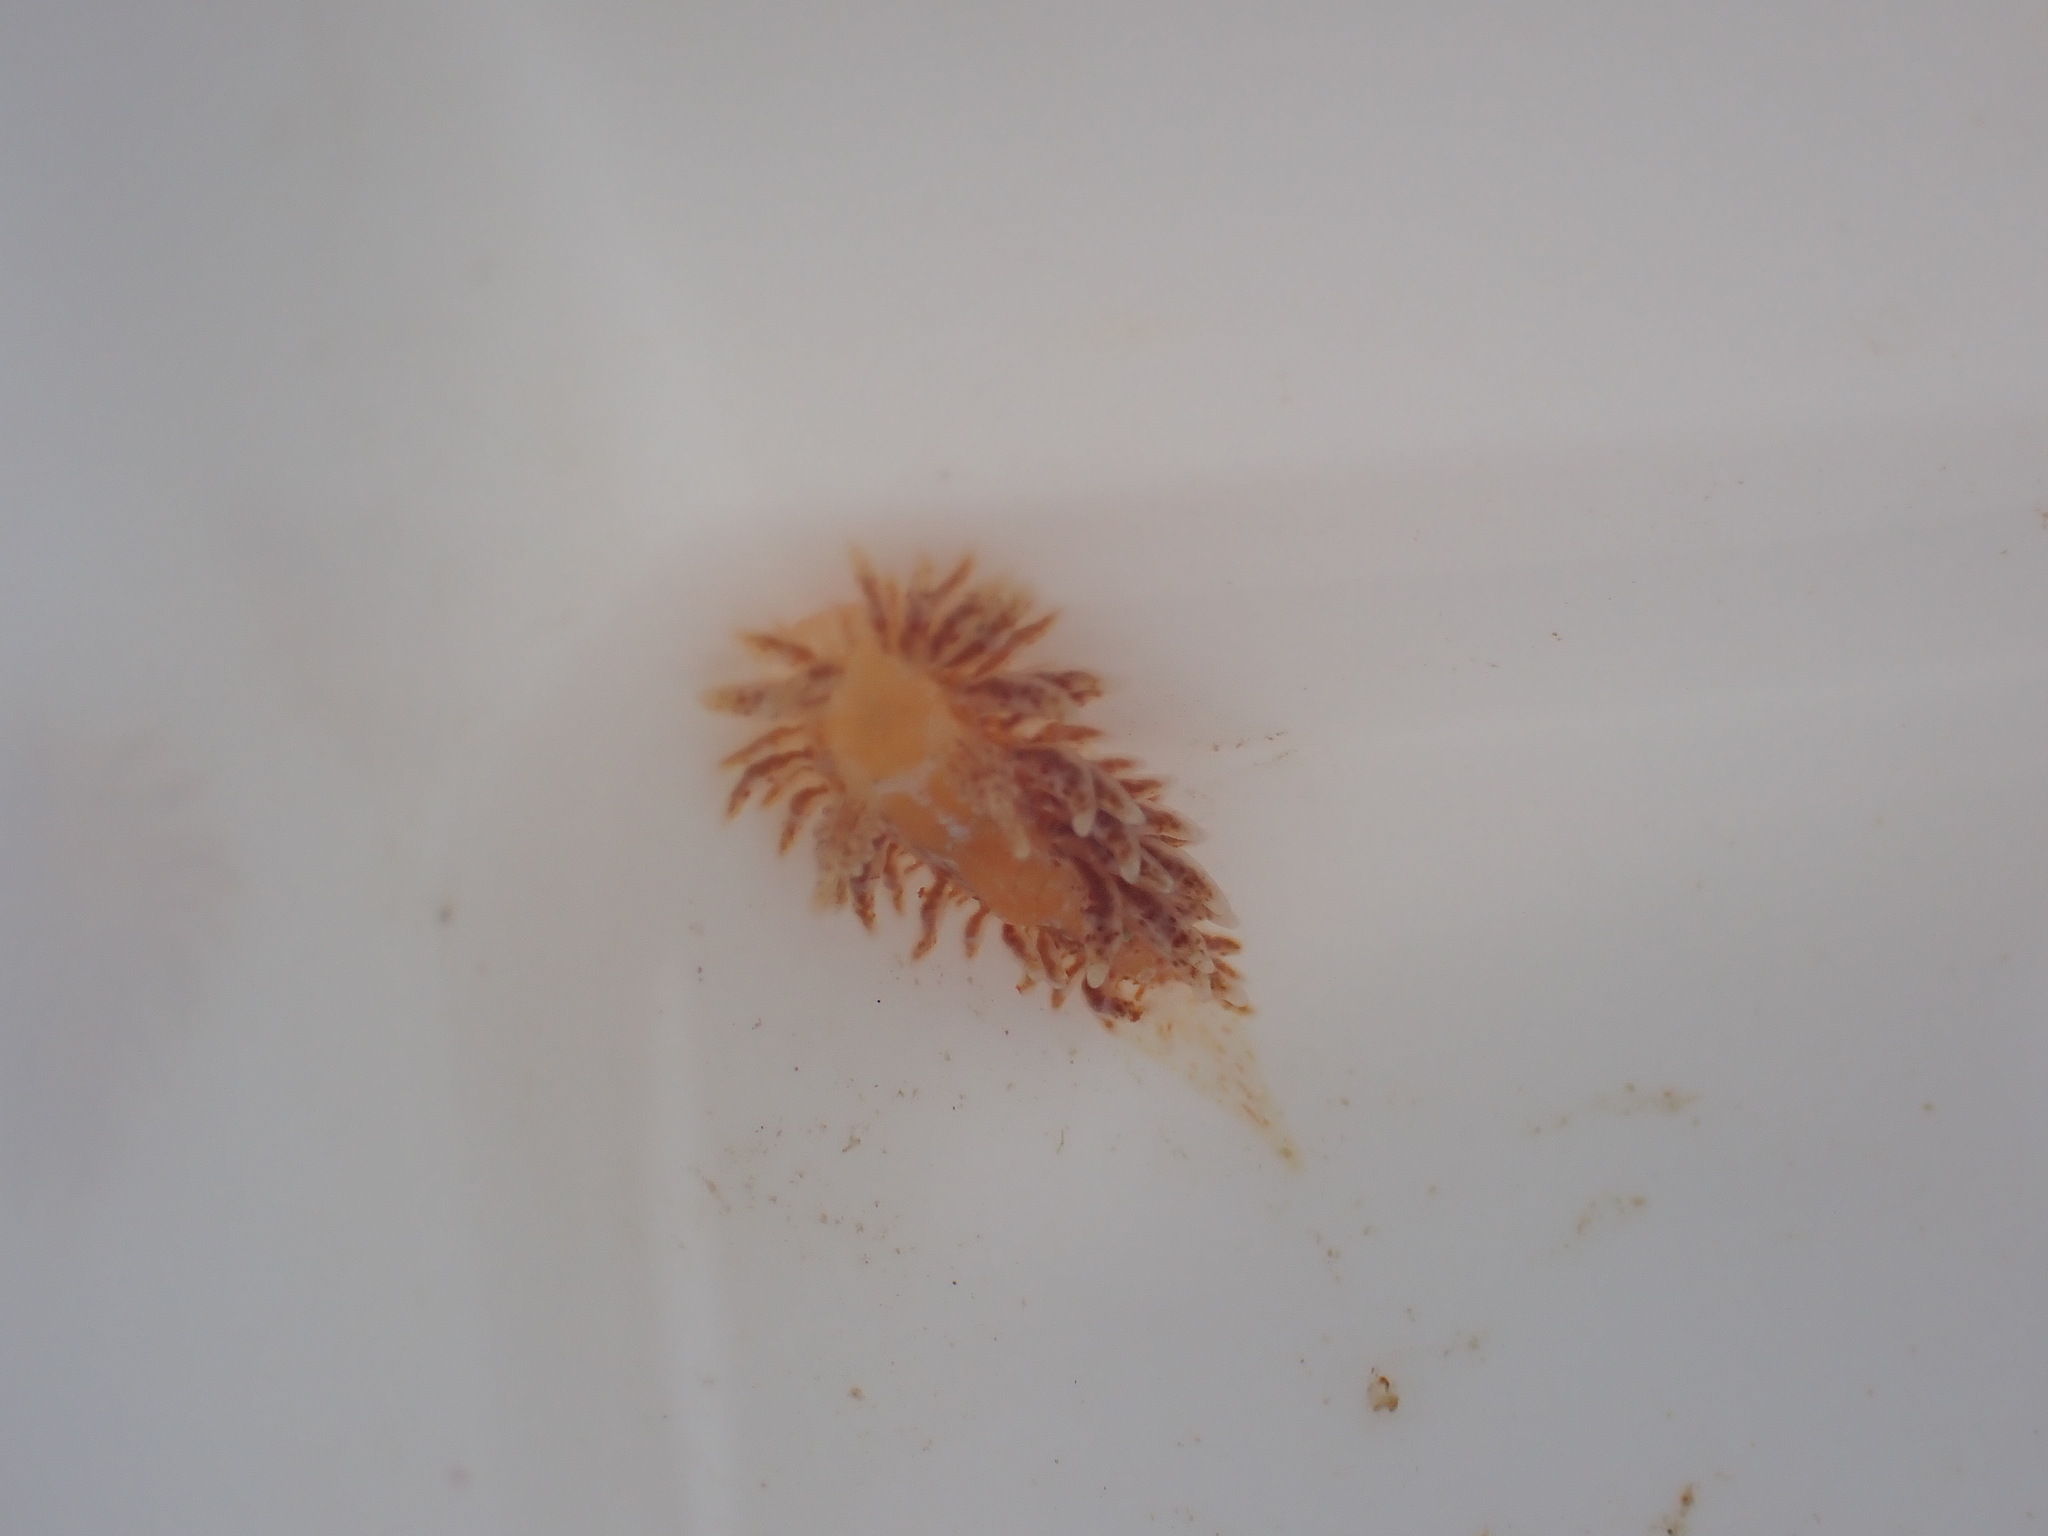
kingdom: Animalia
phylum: Mollusca
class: Gastropoda
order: Nudibranchia
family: Proctonotidae
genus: Caldukia
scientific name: Caldukia affinis
